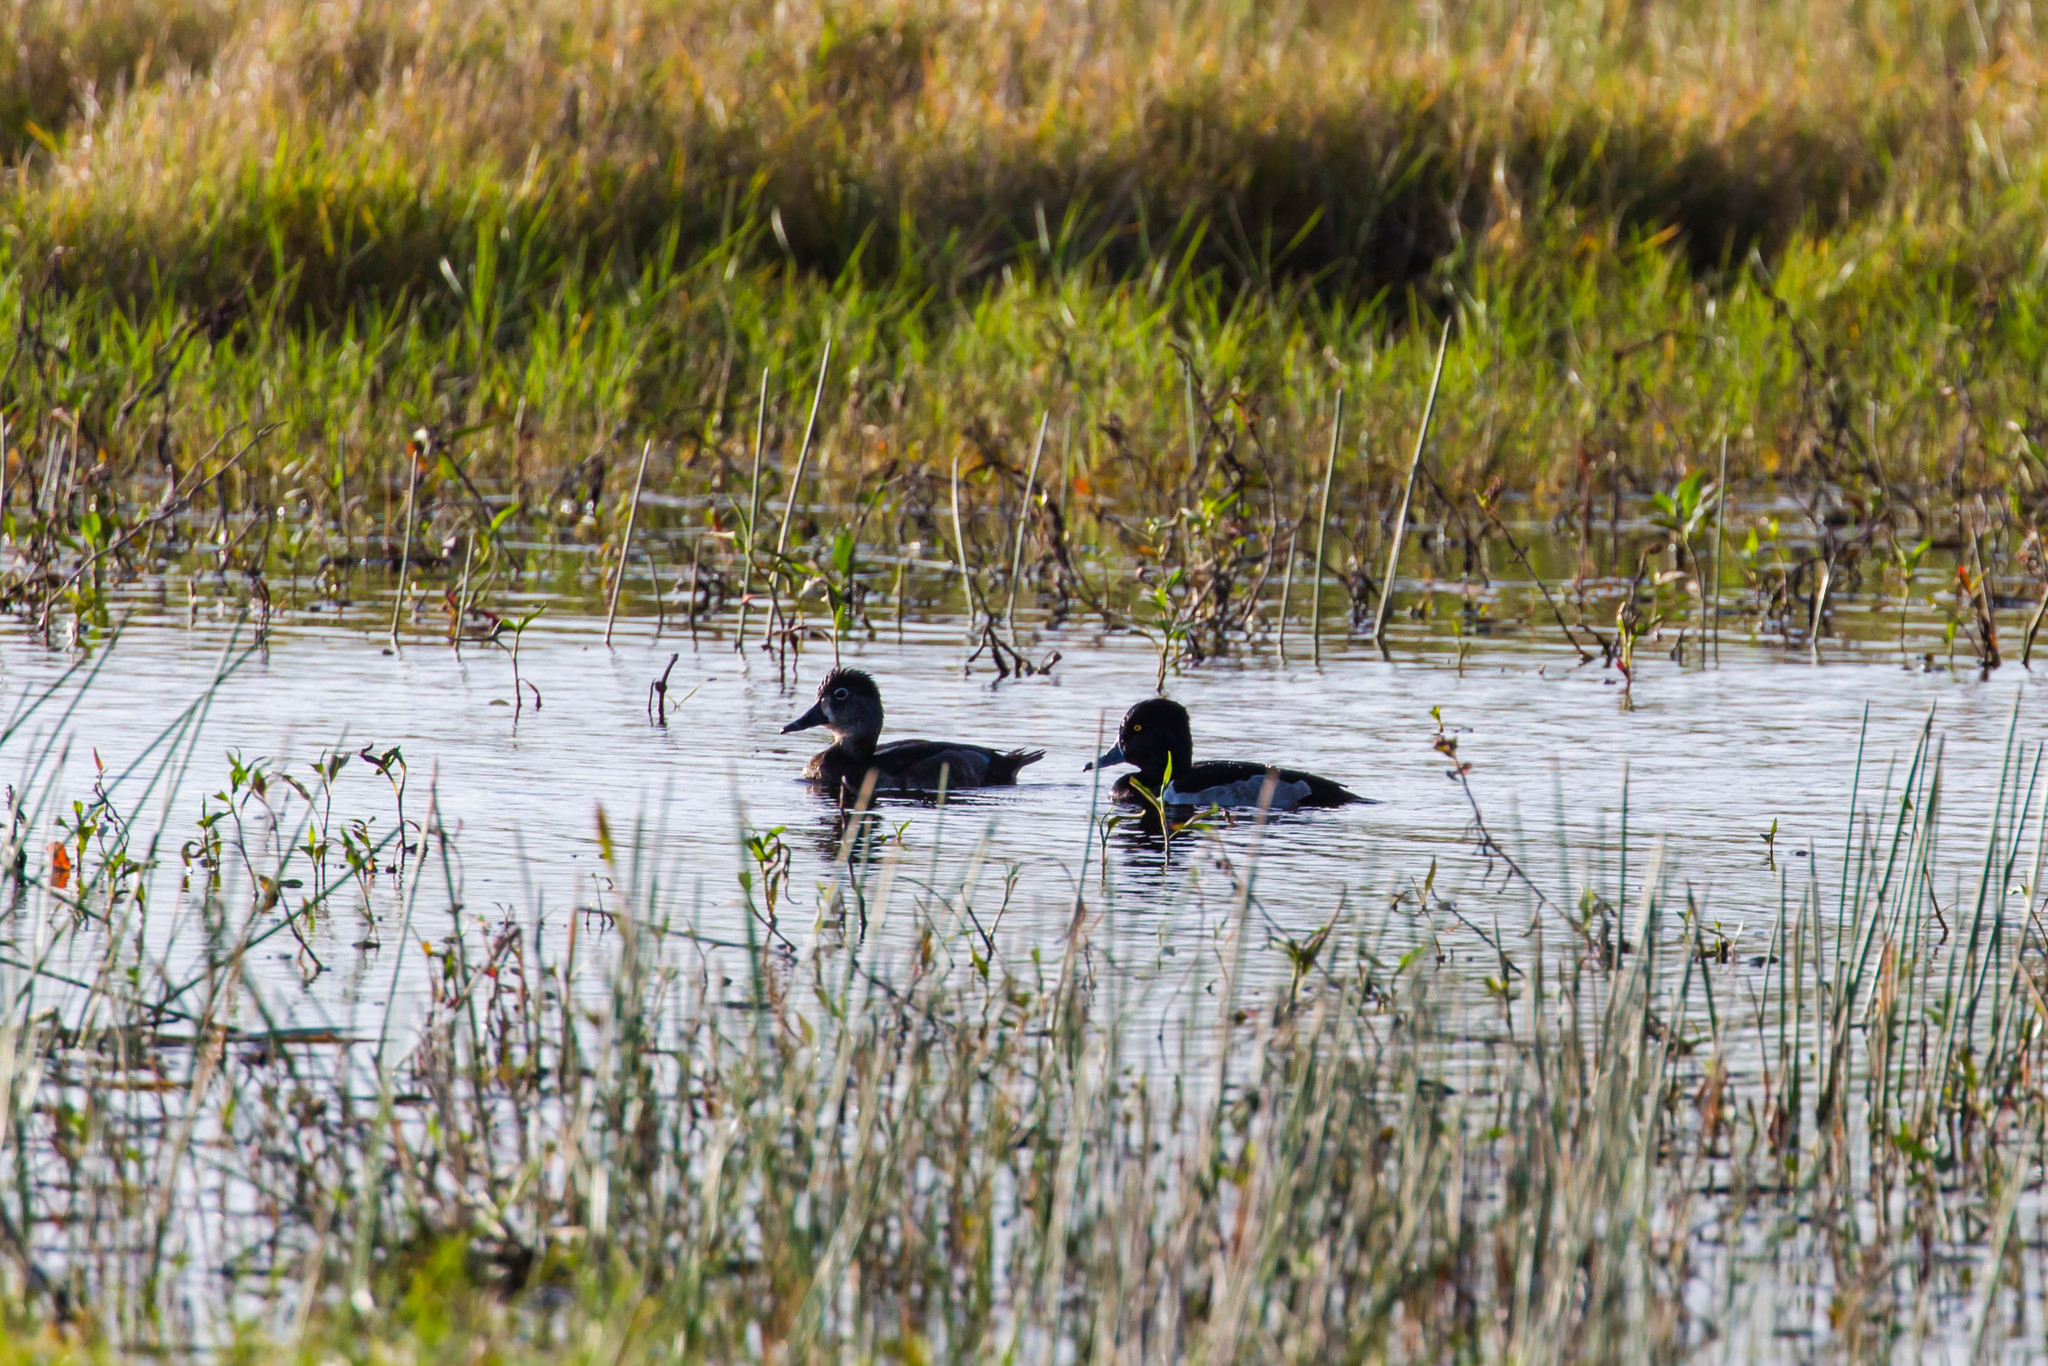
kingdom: Animalia
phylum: Chordata
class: Aves
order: Anseriformes
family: Anatidae
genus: Aythya
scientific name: Aythya collaris
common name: Ring-necked duck
